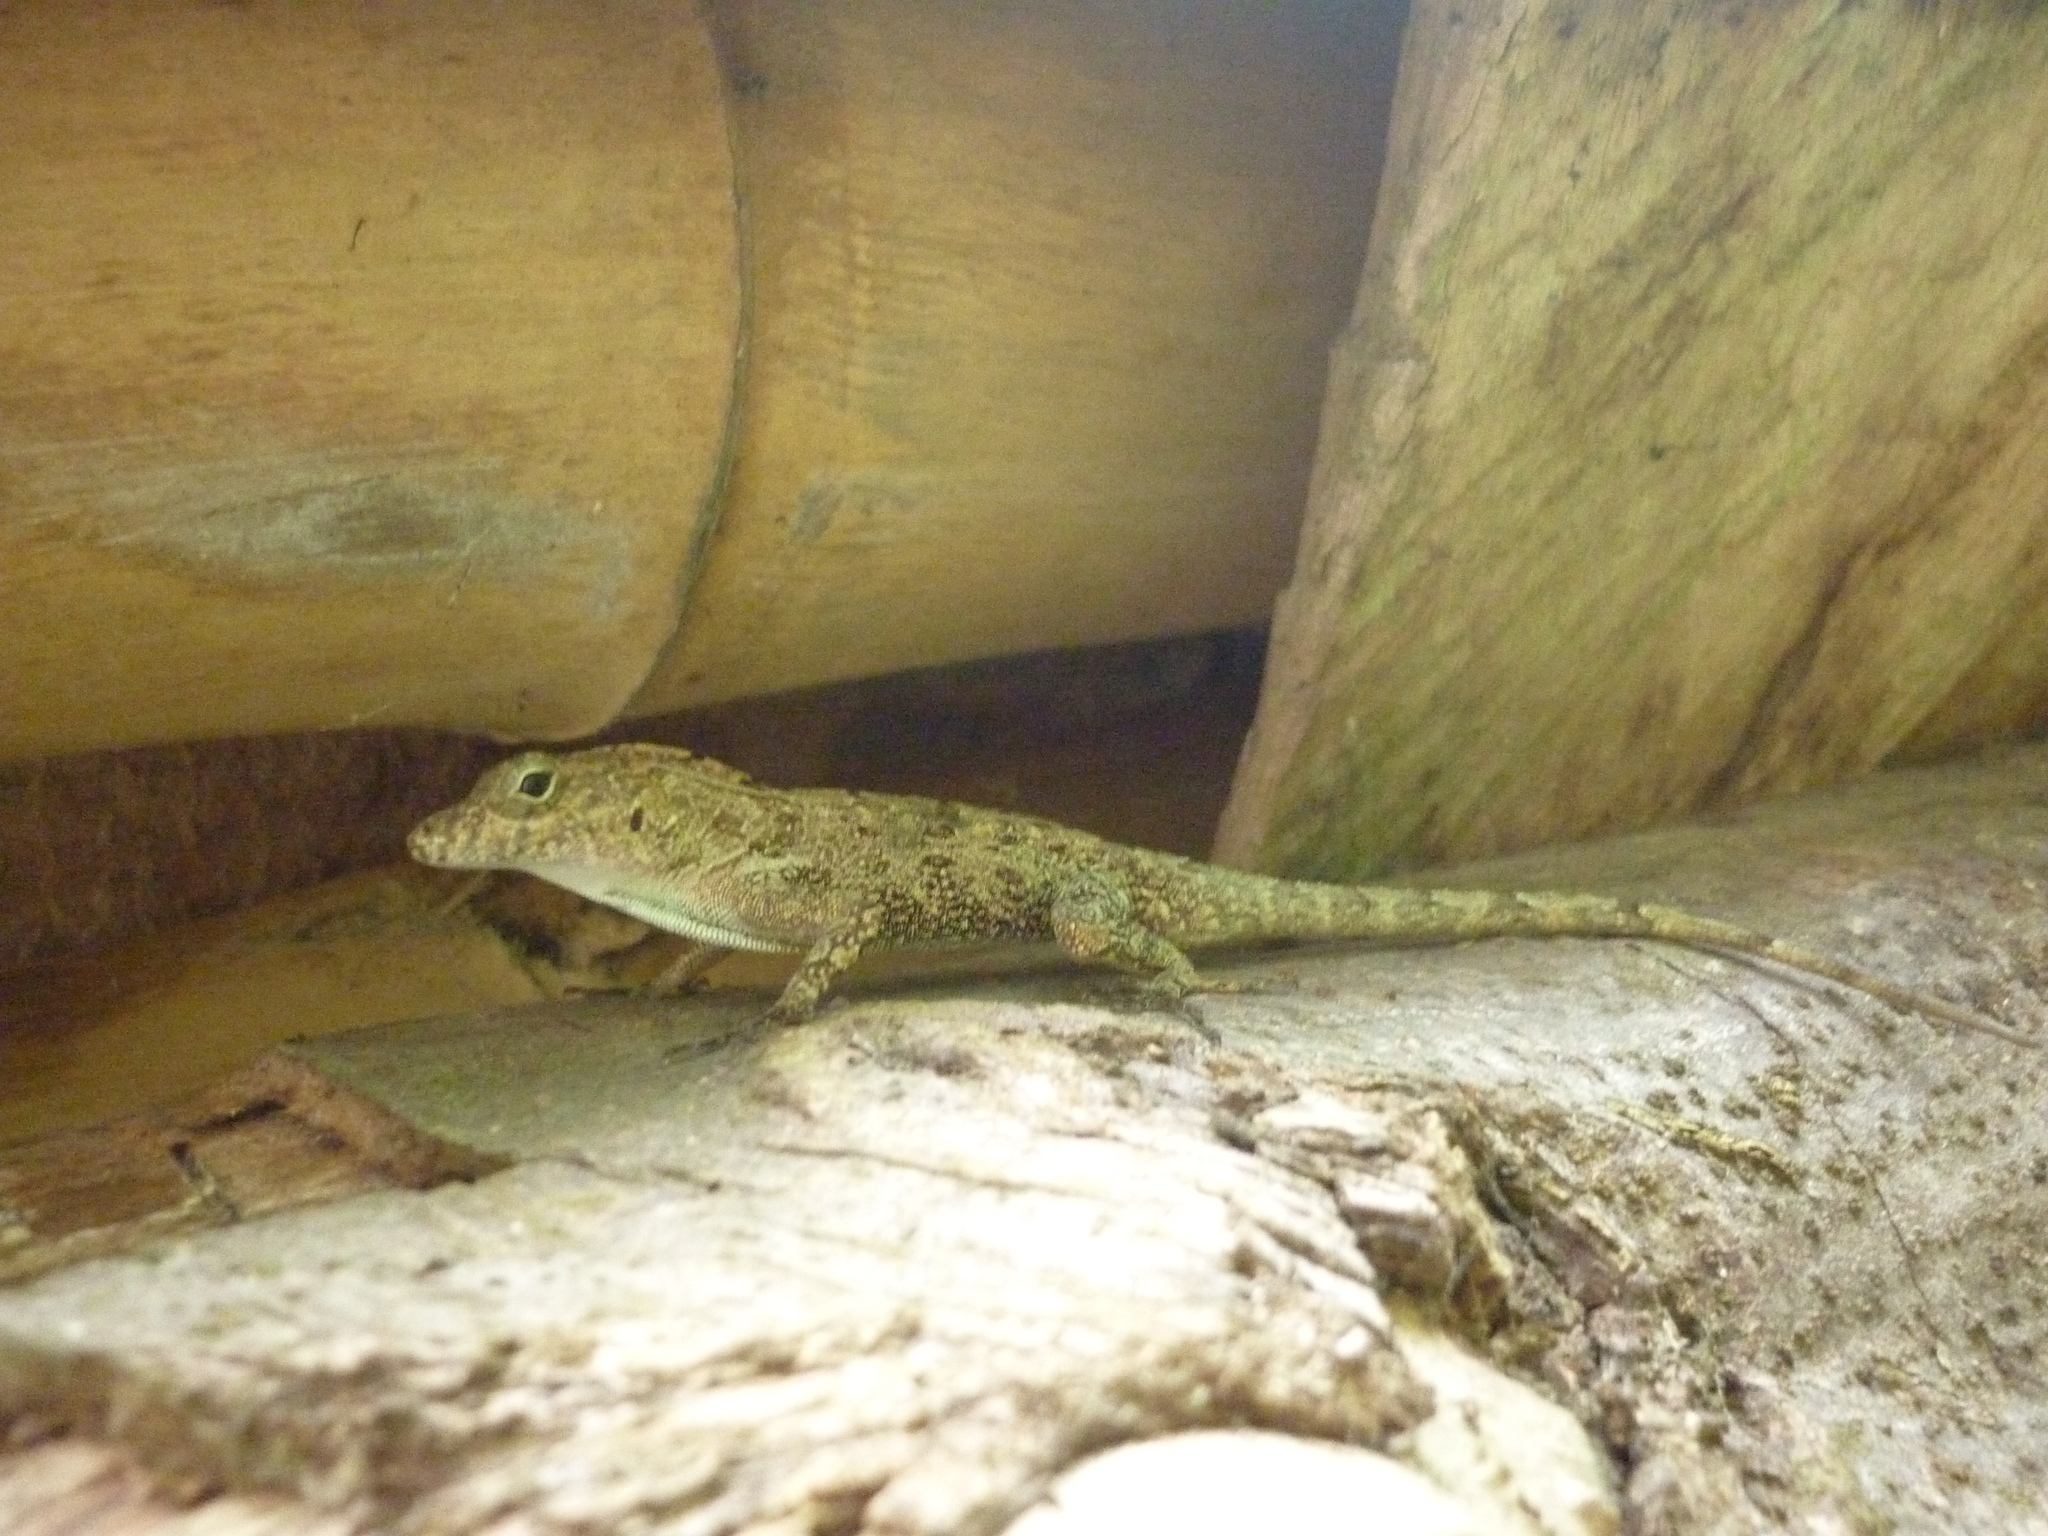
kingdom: Animalia
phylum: Chordata
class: Squamata
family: Dactyloidae
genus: Anolis
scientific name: Anolis cristatellus
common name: Crested anole
